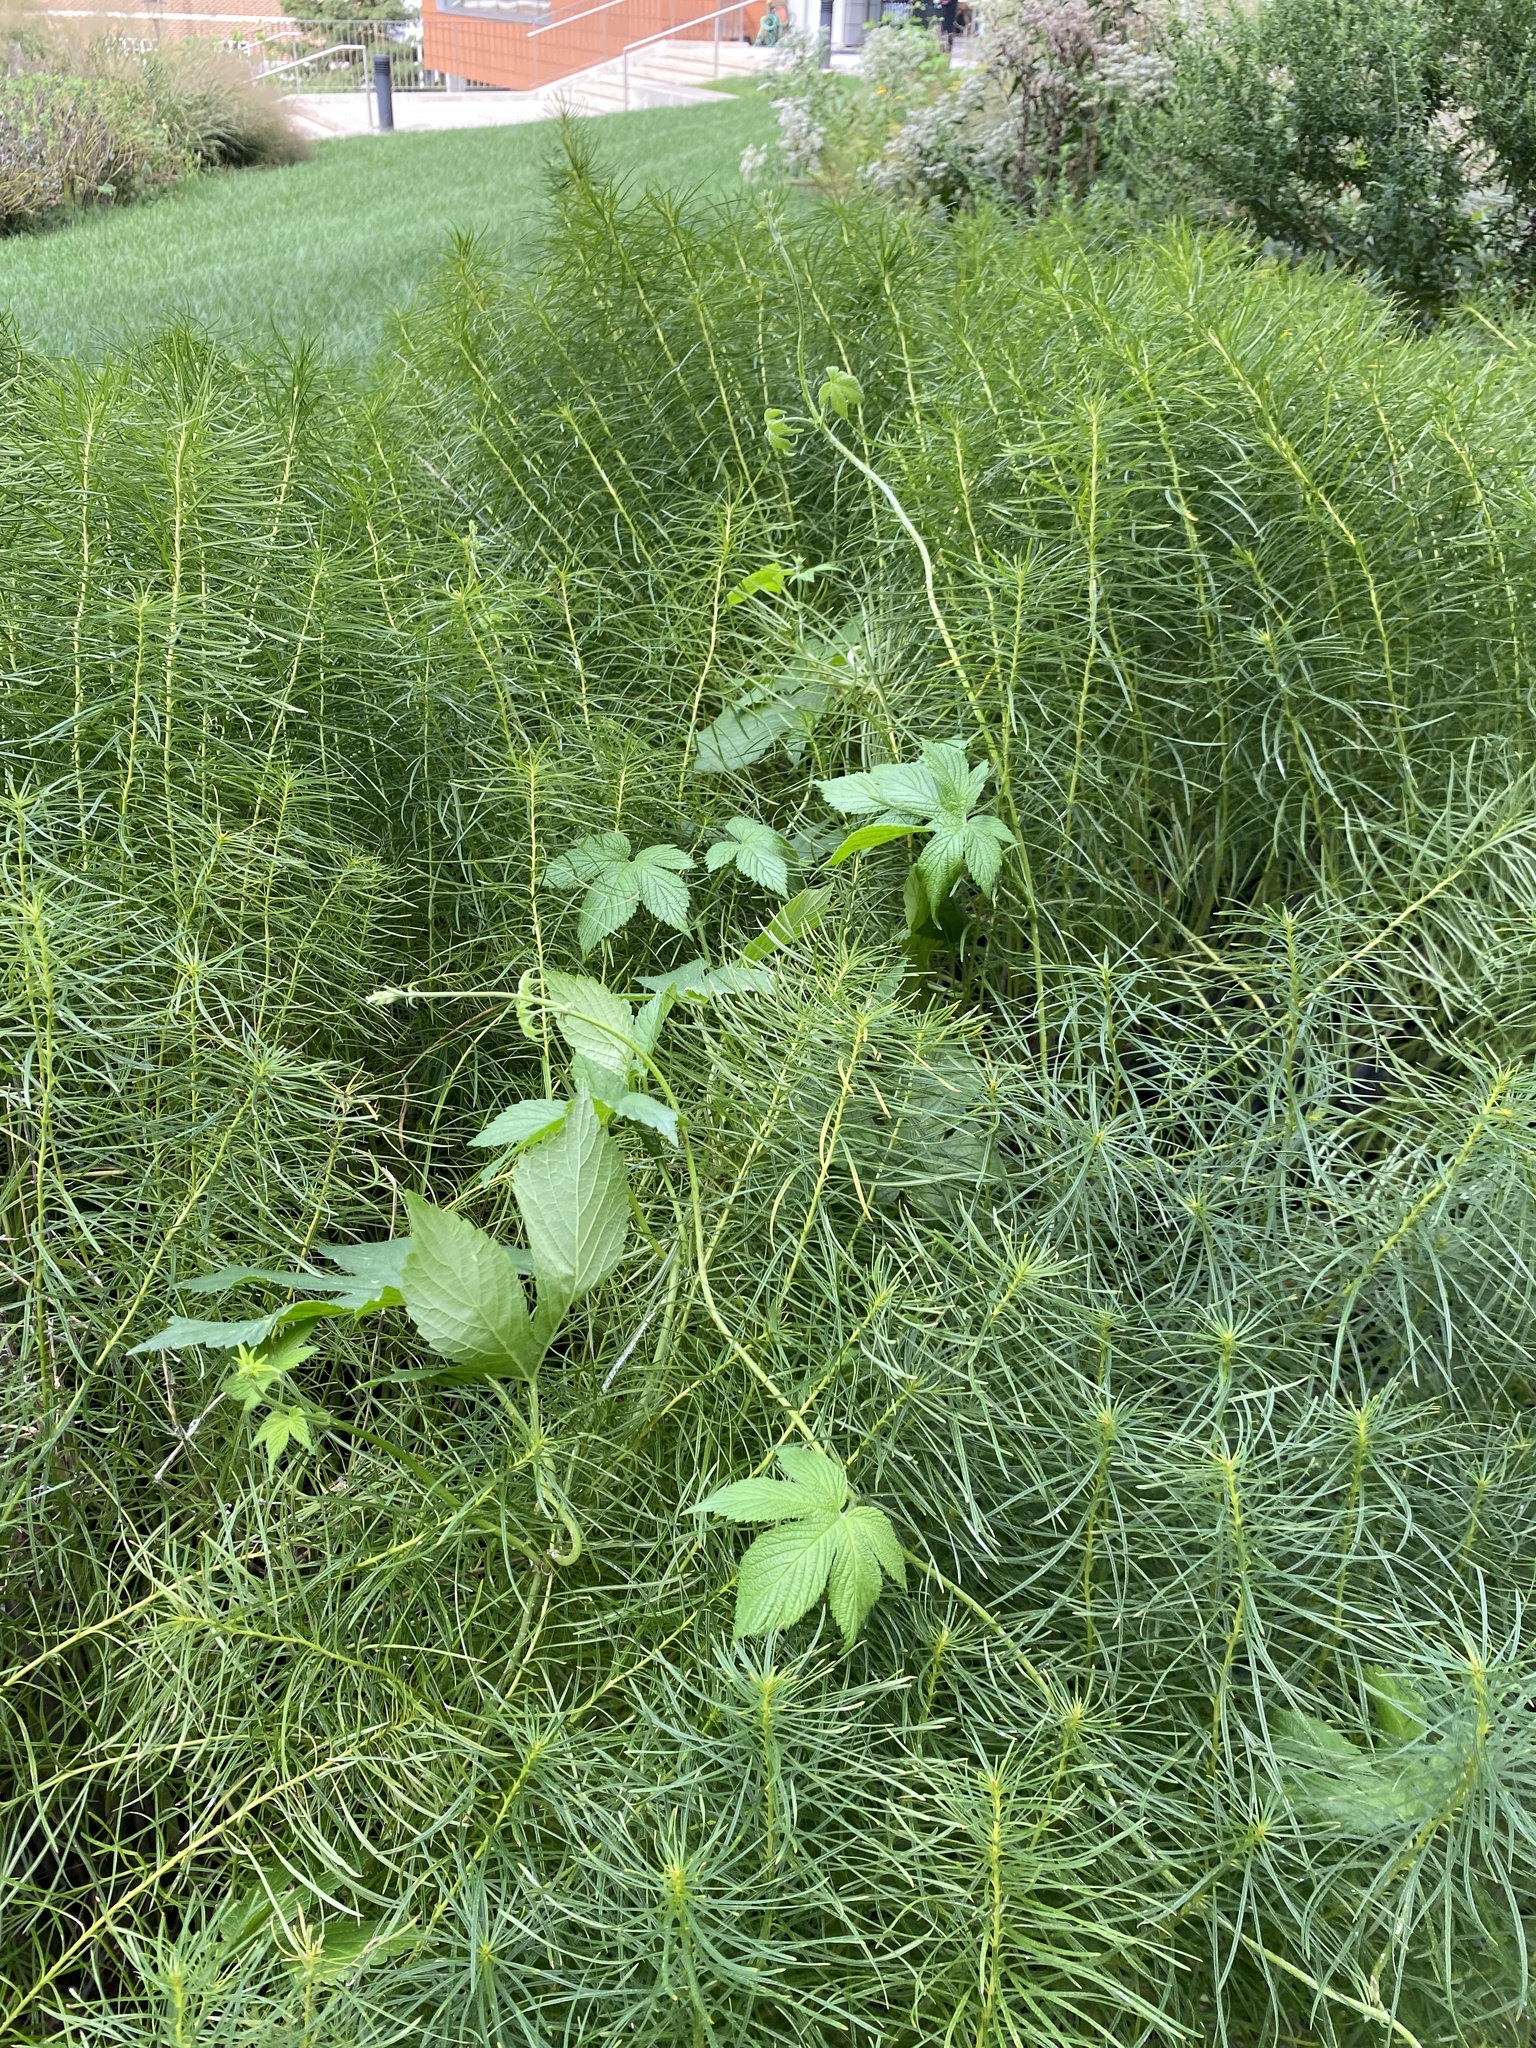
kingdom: Plantae
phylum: Tracheophyta
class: Magnoliopsida
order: Rosales
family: Cannabaceae
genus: Humulus
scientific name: Humulus scandens
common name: Japanese hop
